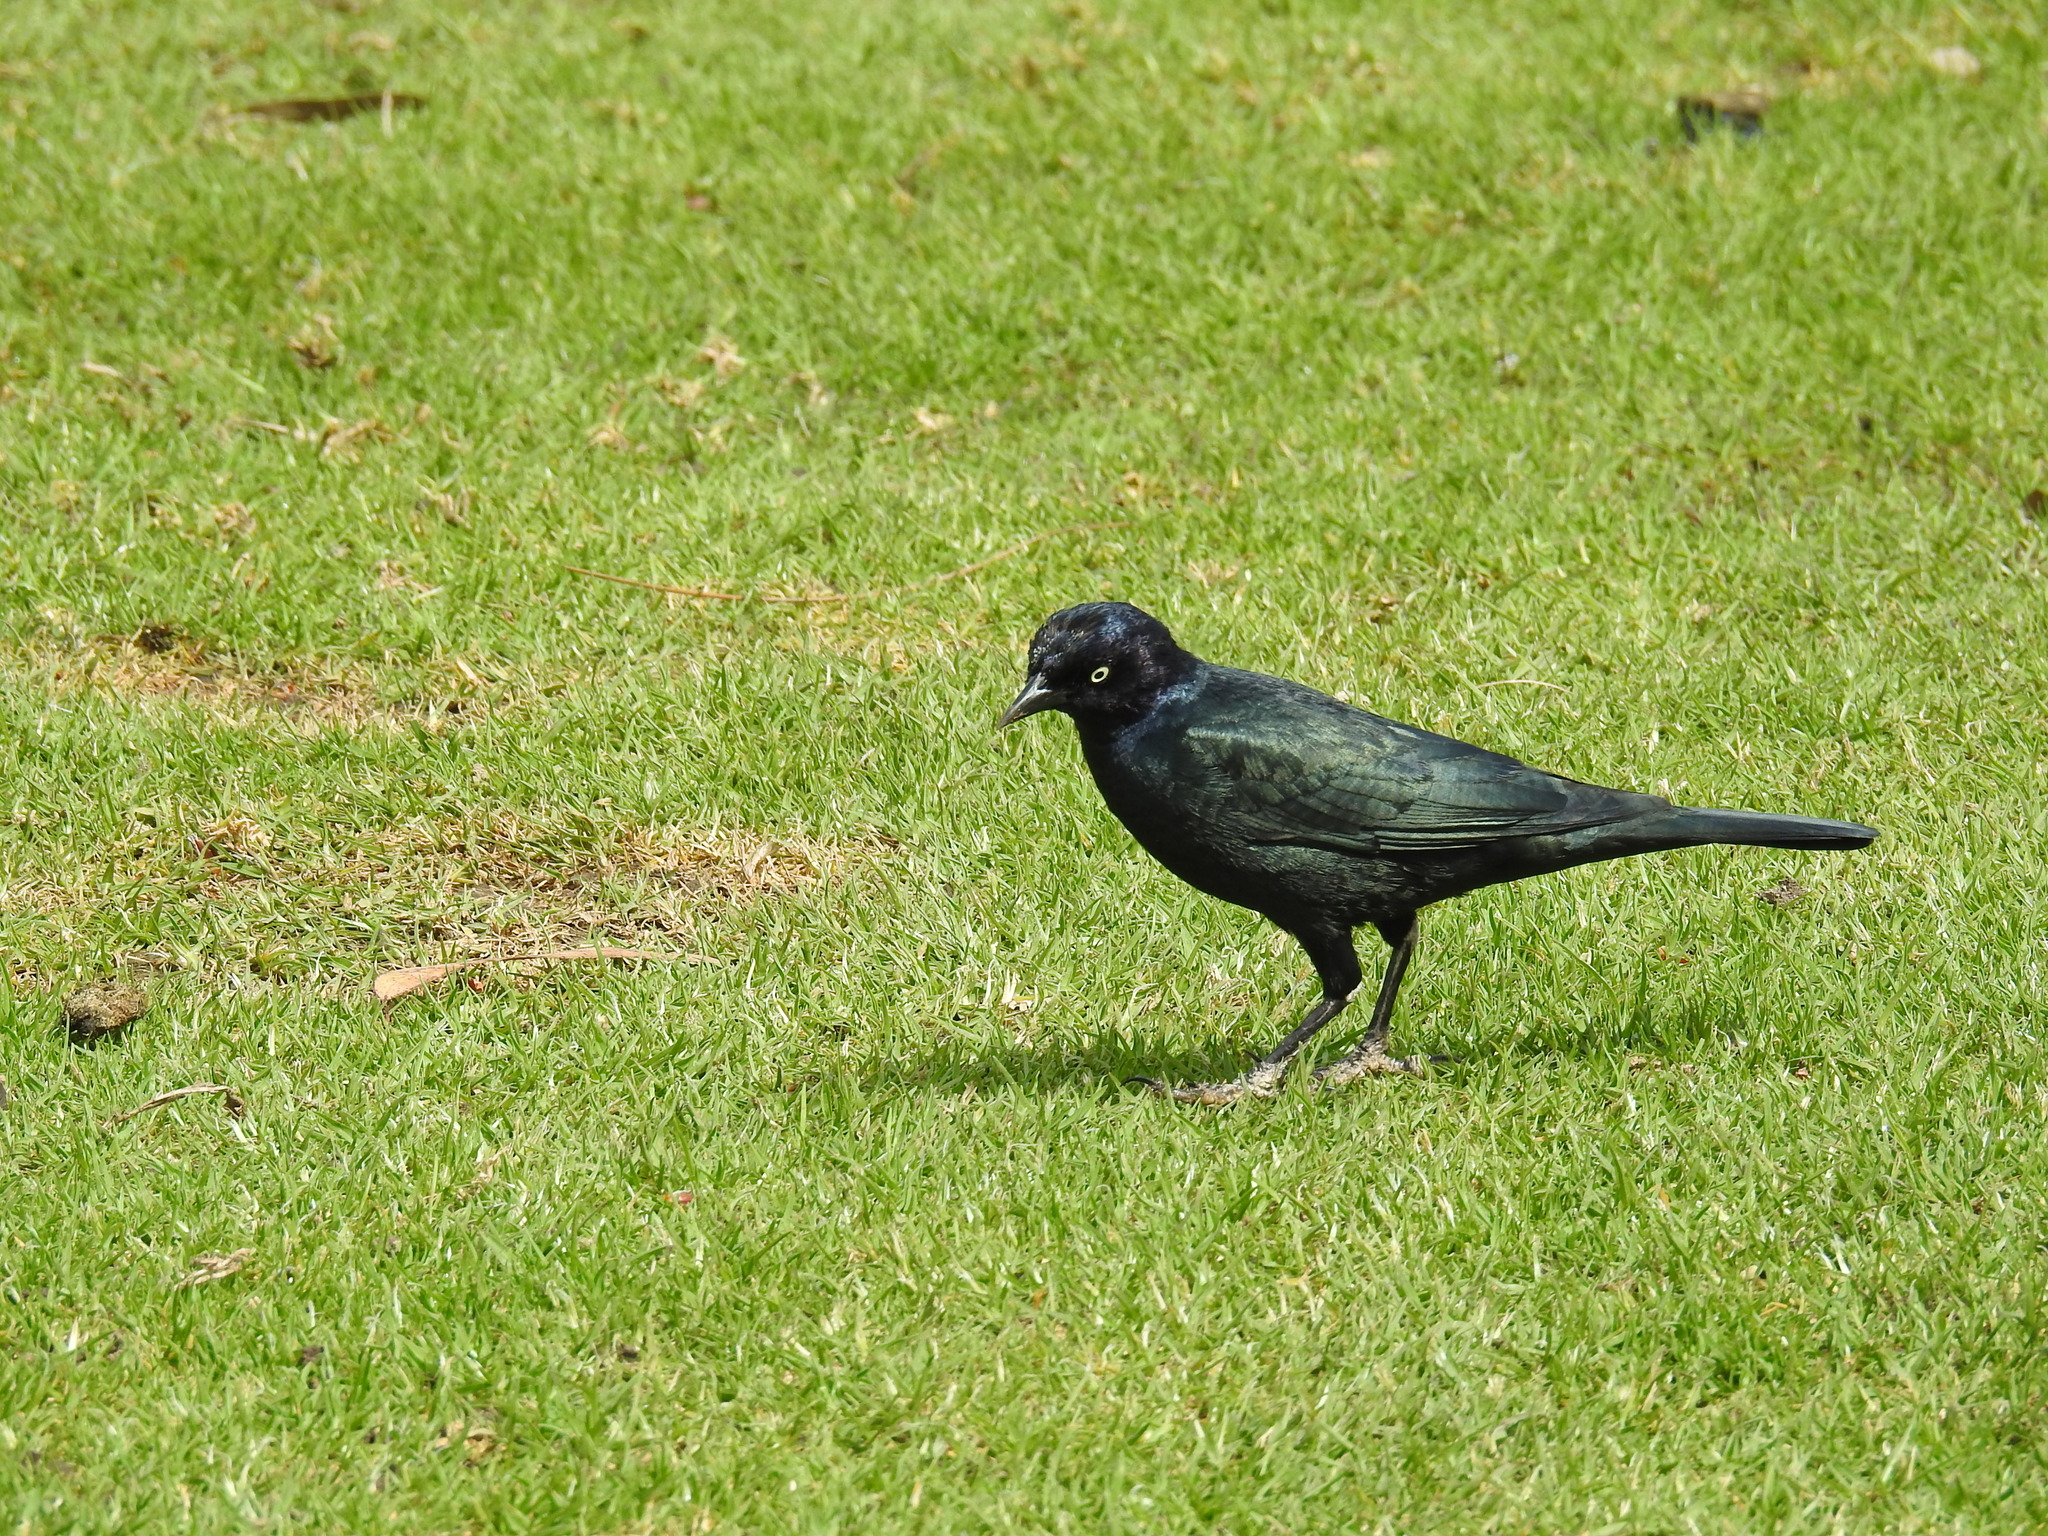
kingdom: Animalia
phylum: Chordata
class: Aves
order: Passeriformes
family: Icteridae
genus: Euphagus
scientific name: Euphagus cyanocephalus
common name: Brewer's blackbird
